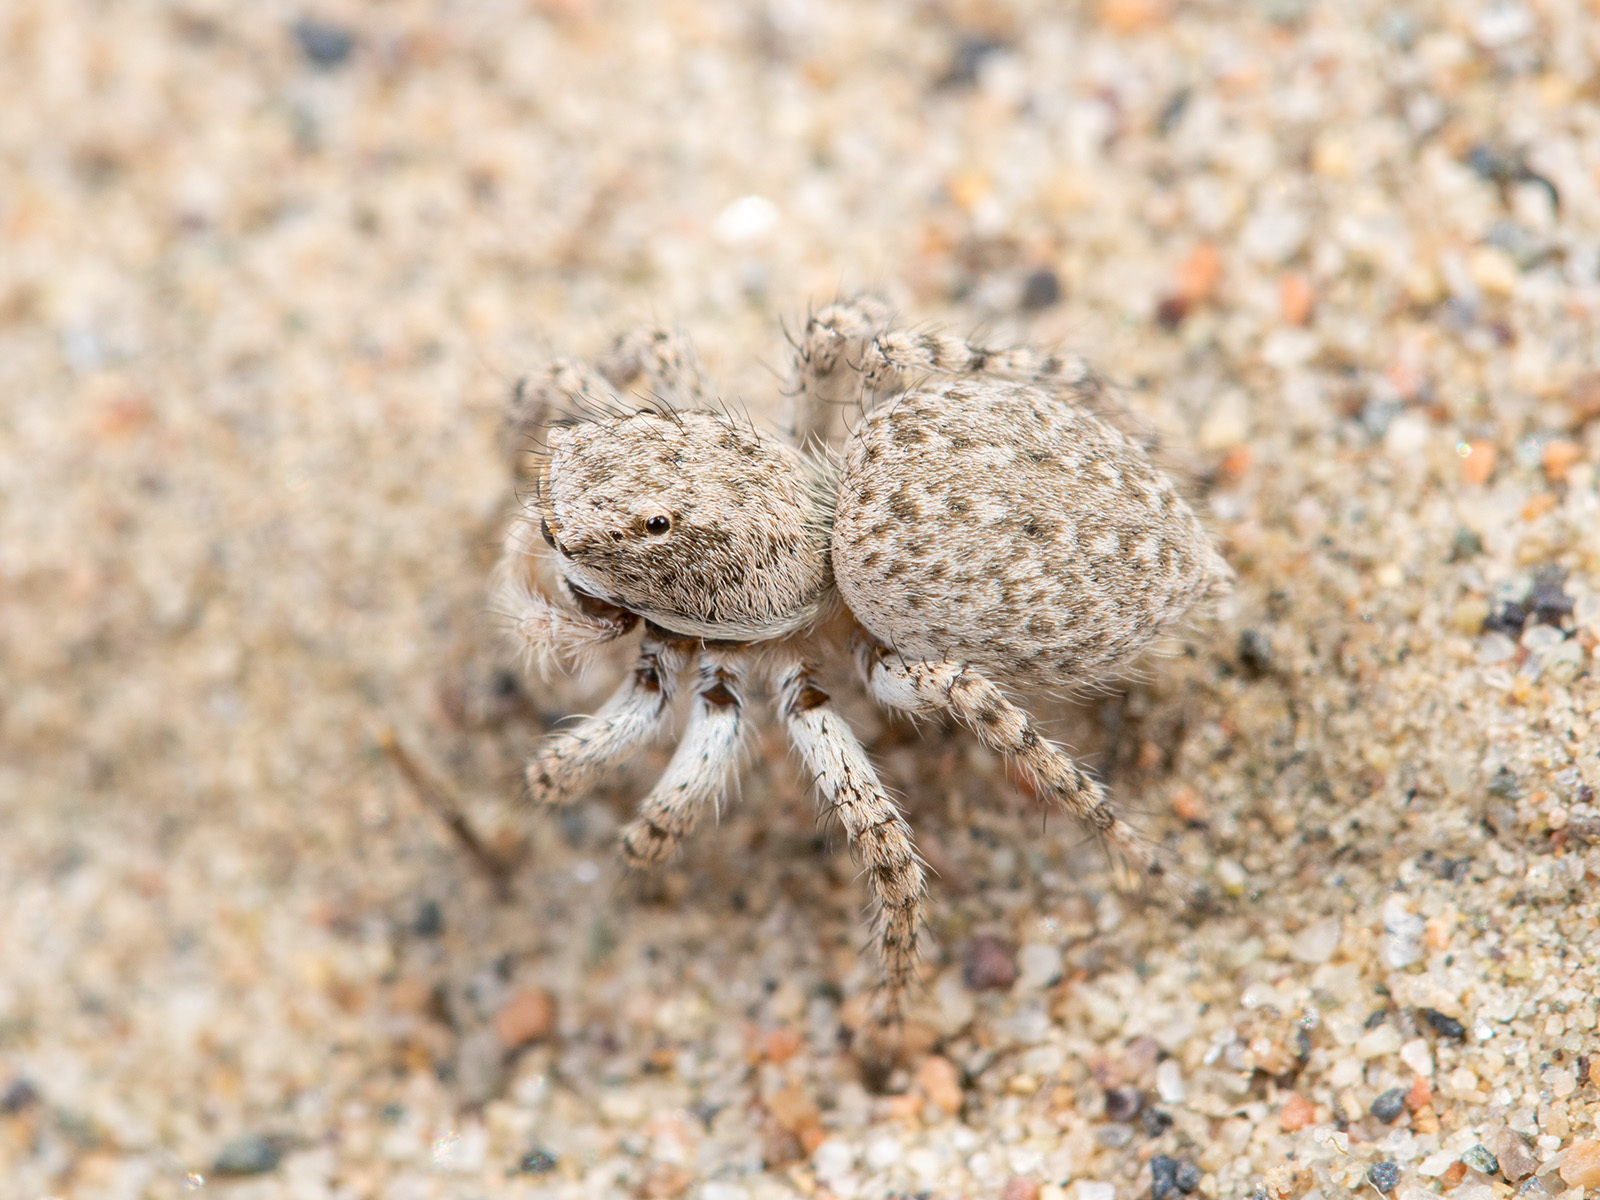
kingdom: Animalia
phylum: Arthropoda
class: Arachnida
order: Araneae
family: Salticidae
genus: Aelurillus
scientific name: Aelurillus nenilini
